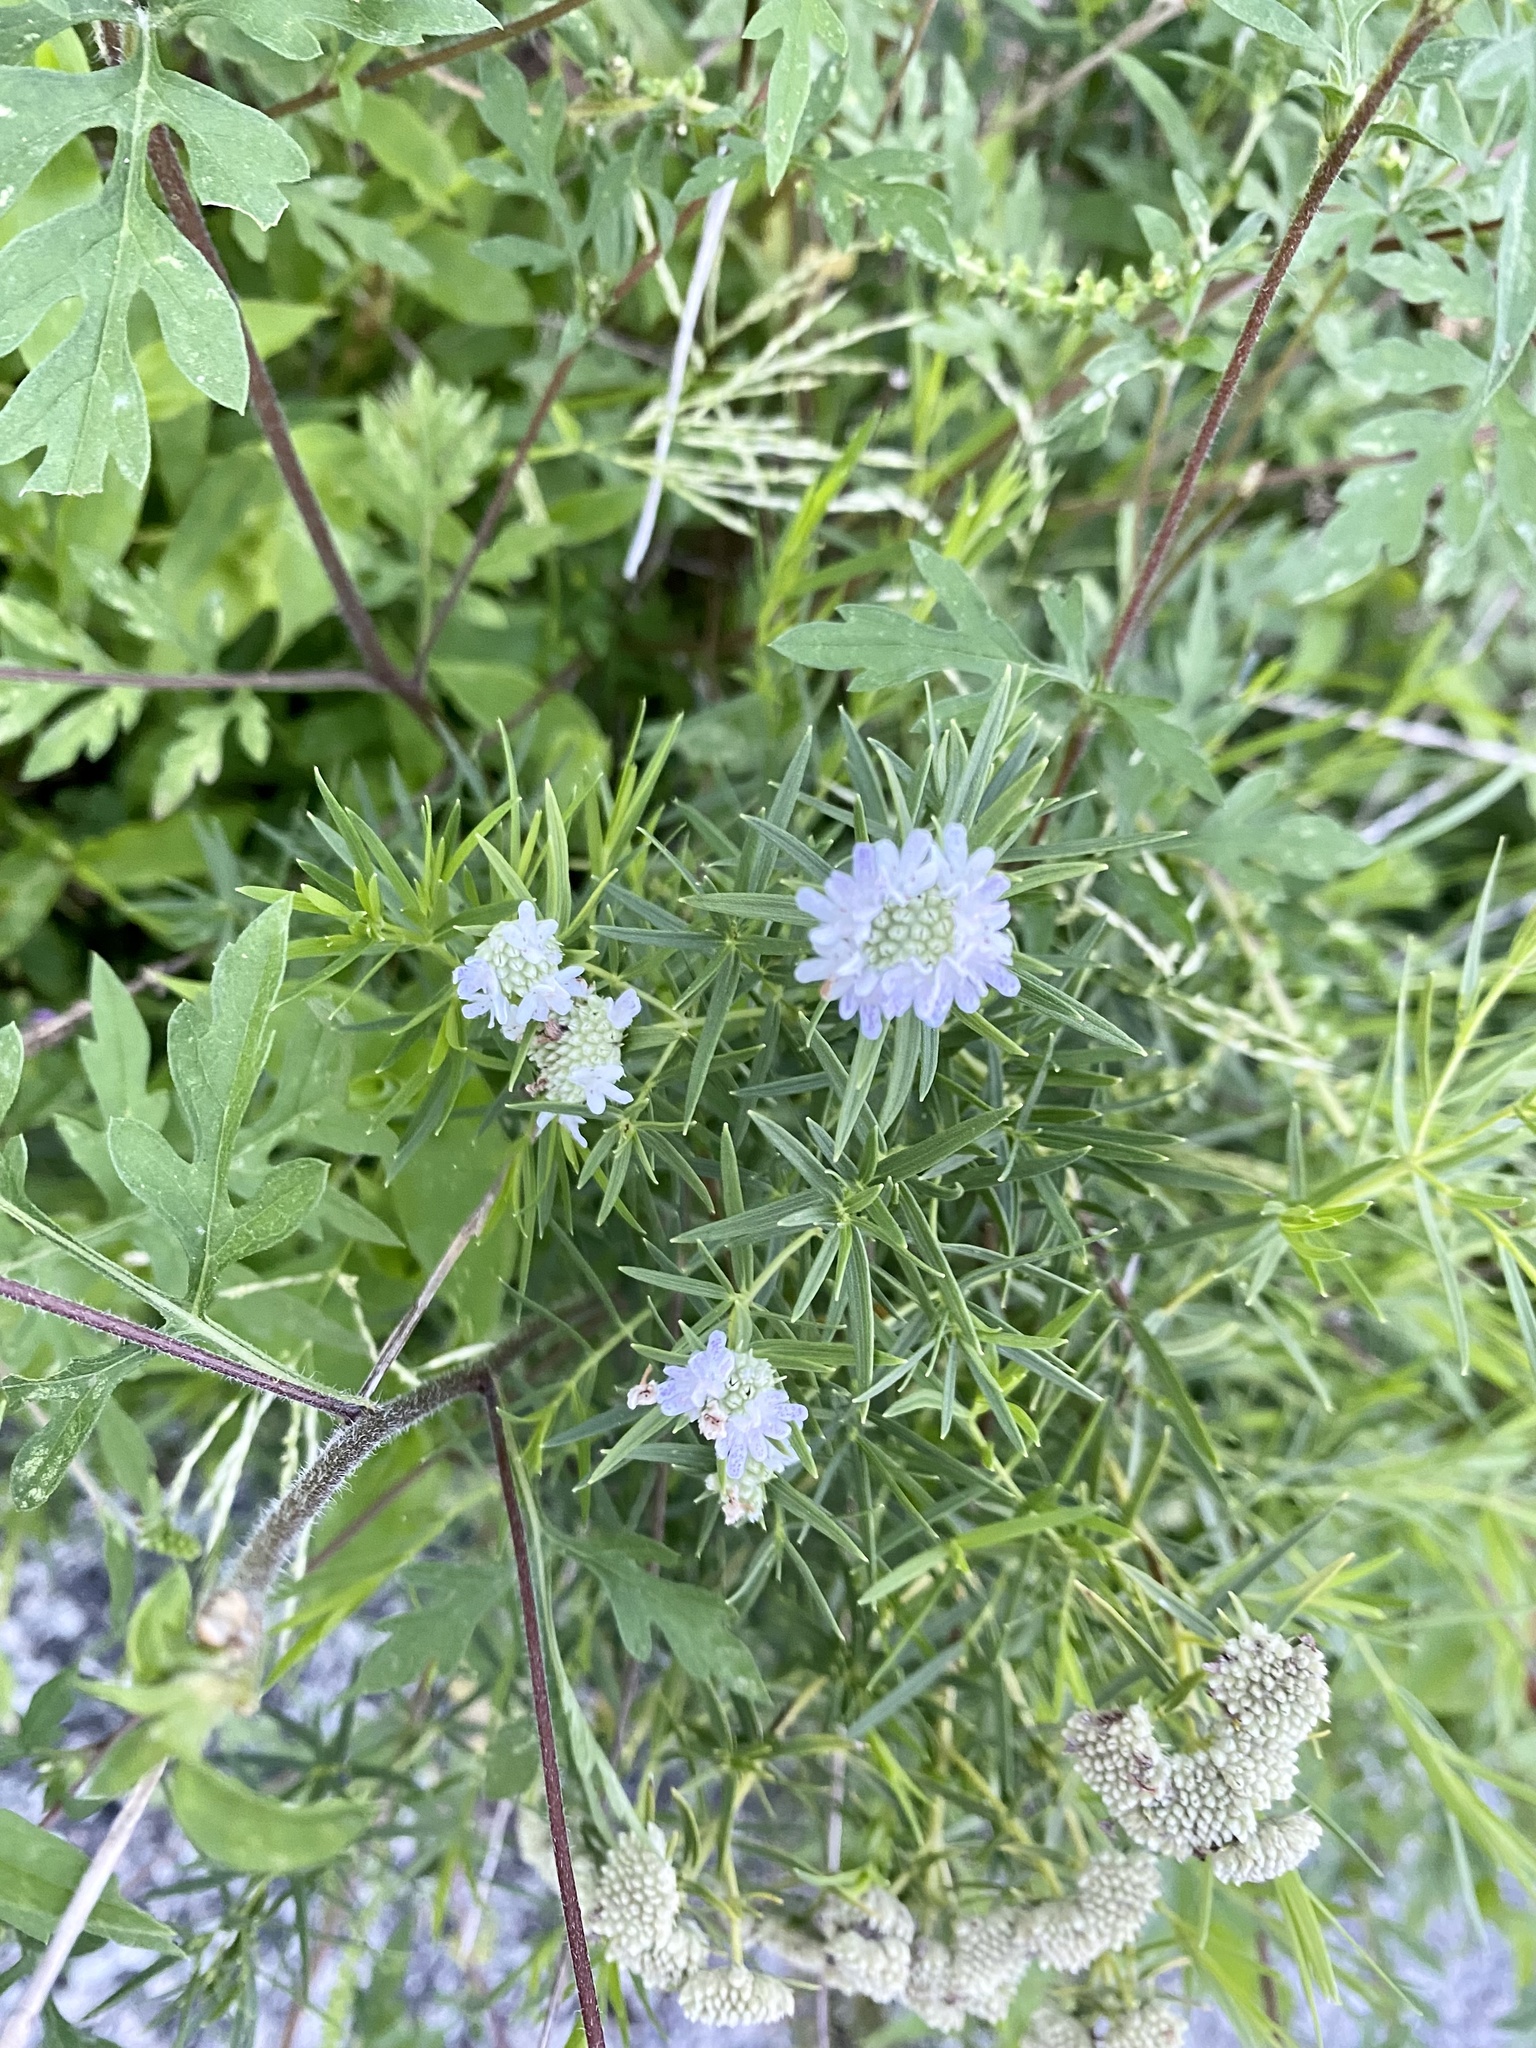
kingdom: Plantae
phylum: Tracheophyta
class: Magnoliopsida
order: Lamiales
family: Lamiaceae
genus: Pycnanthemum
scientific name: Pycnanthemum tenuifolium
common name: Narrow-leaf mountain-mint
